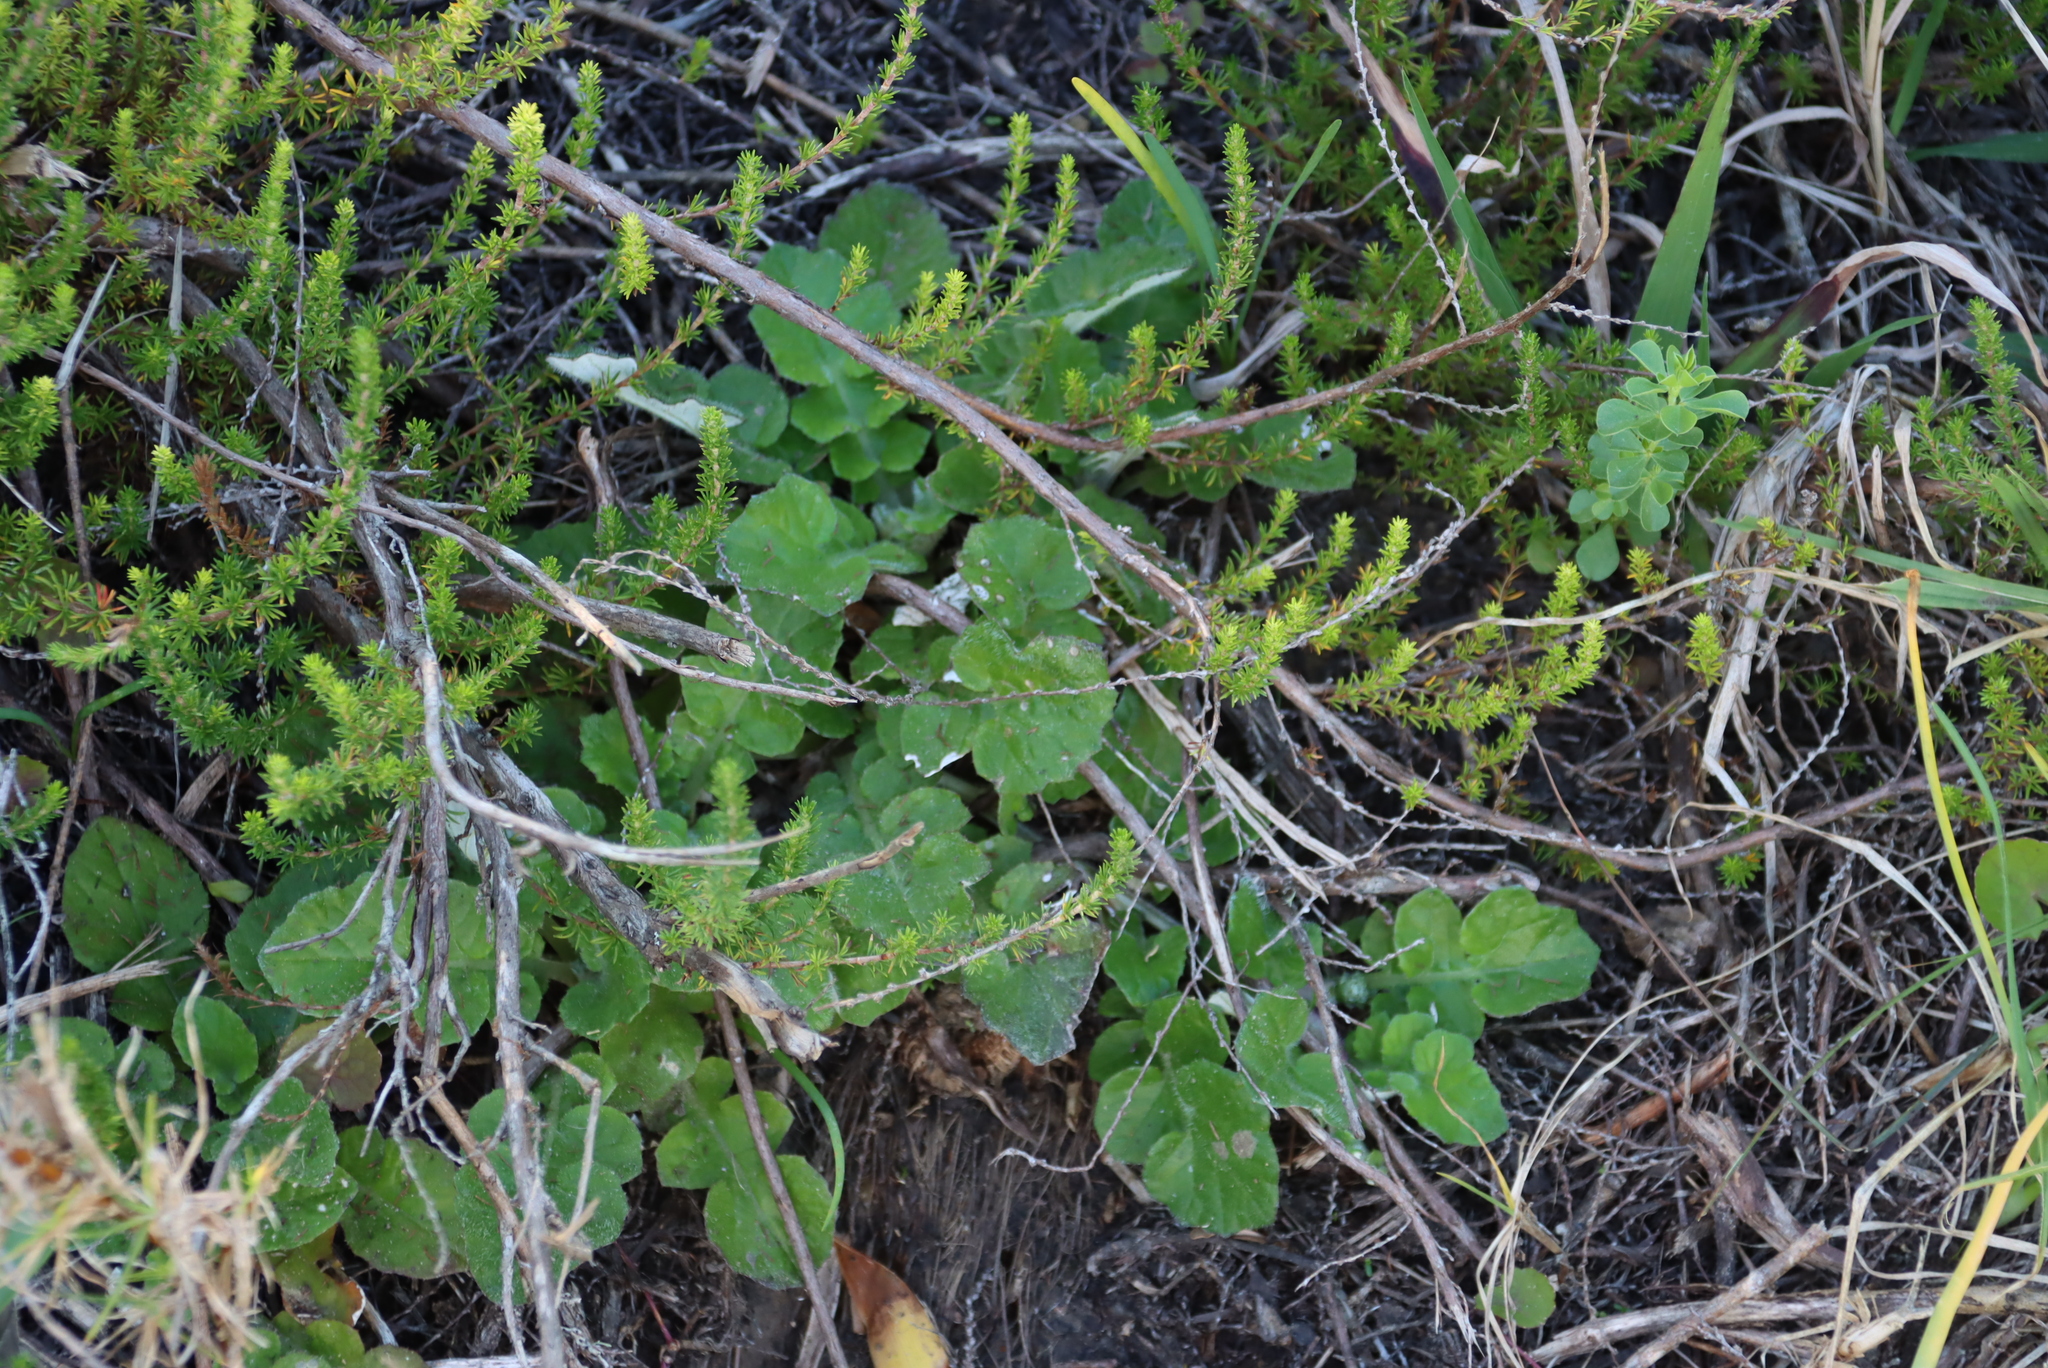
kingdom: Plantae
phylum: Tracheophyta
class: Magnoliopsida
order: Asterales
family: Asteraceae
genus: Arctotheca
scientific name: Arctotheca prostrata
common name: Capeweed
